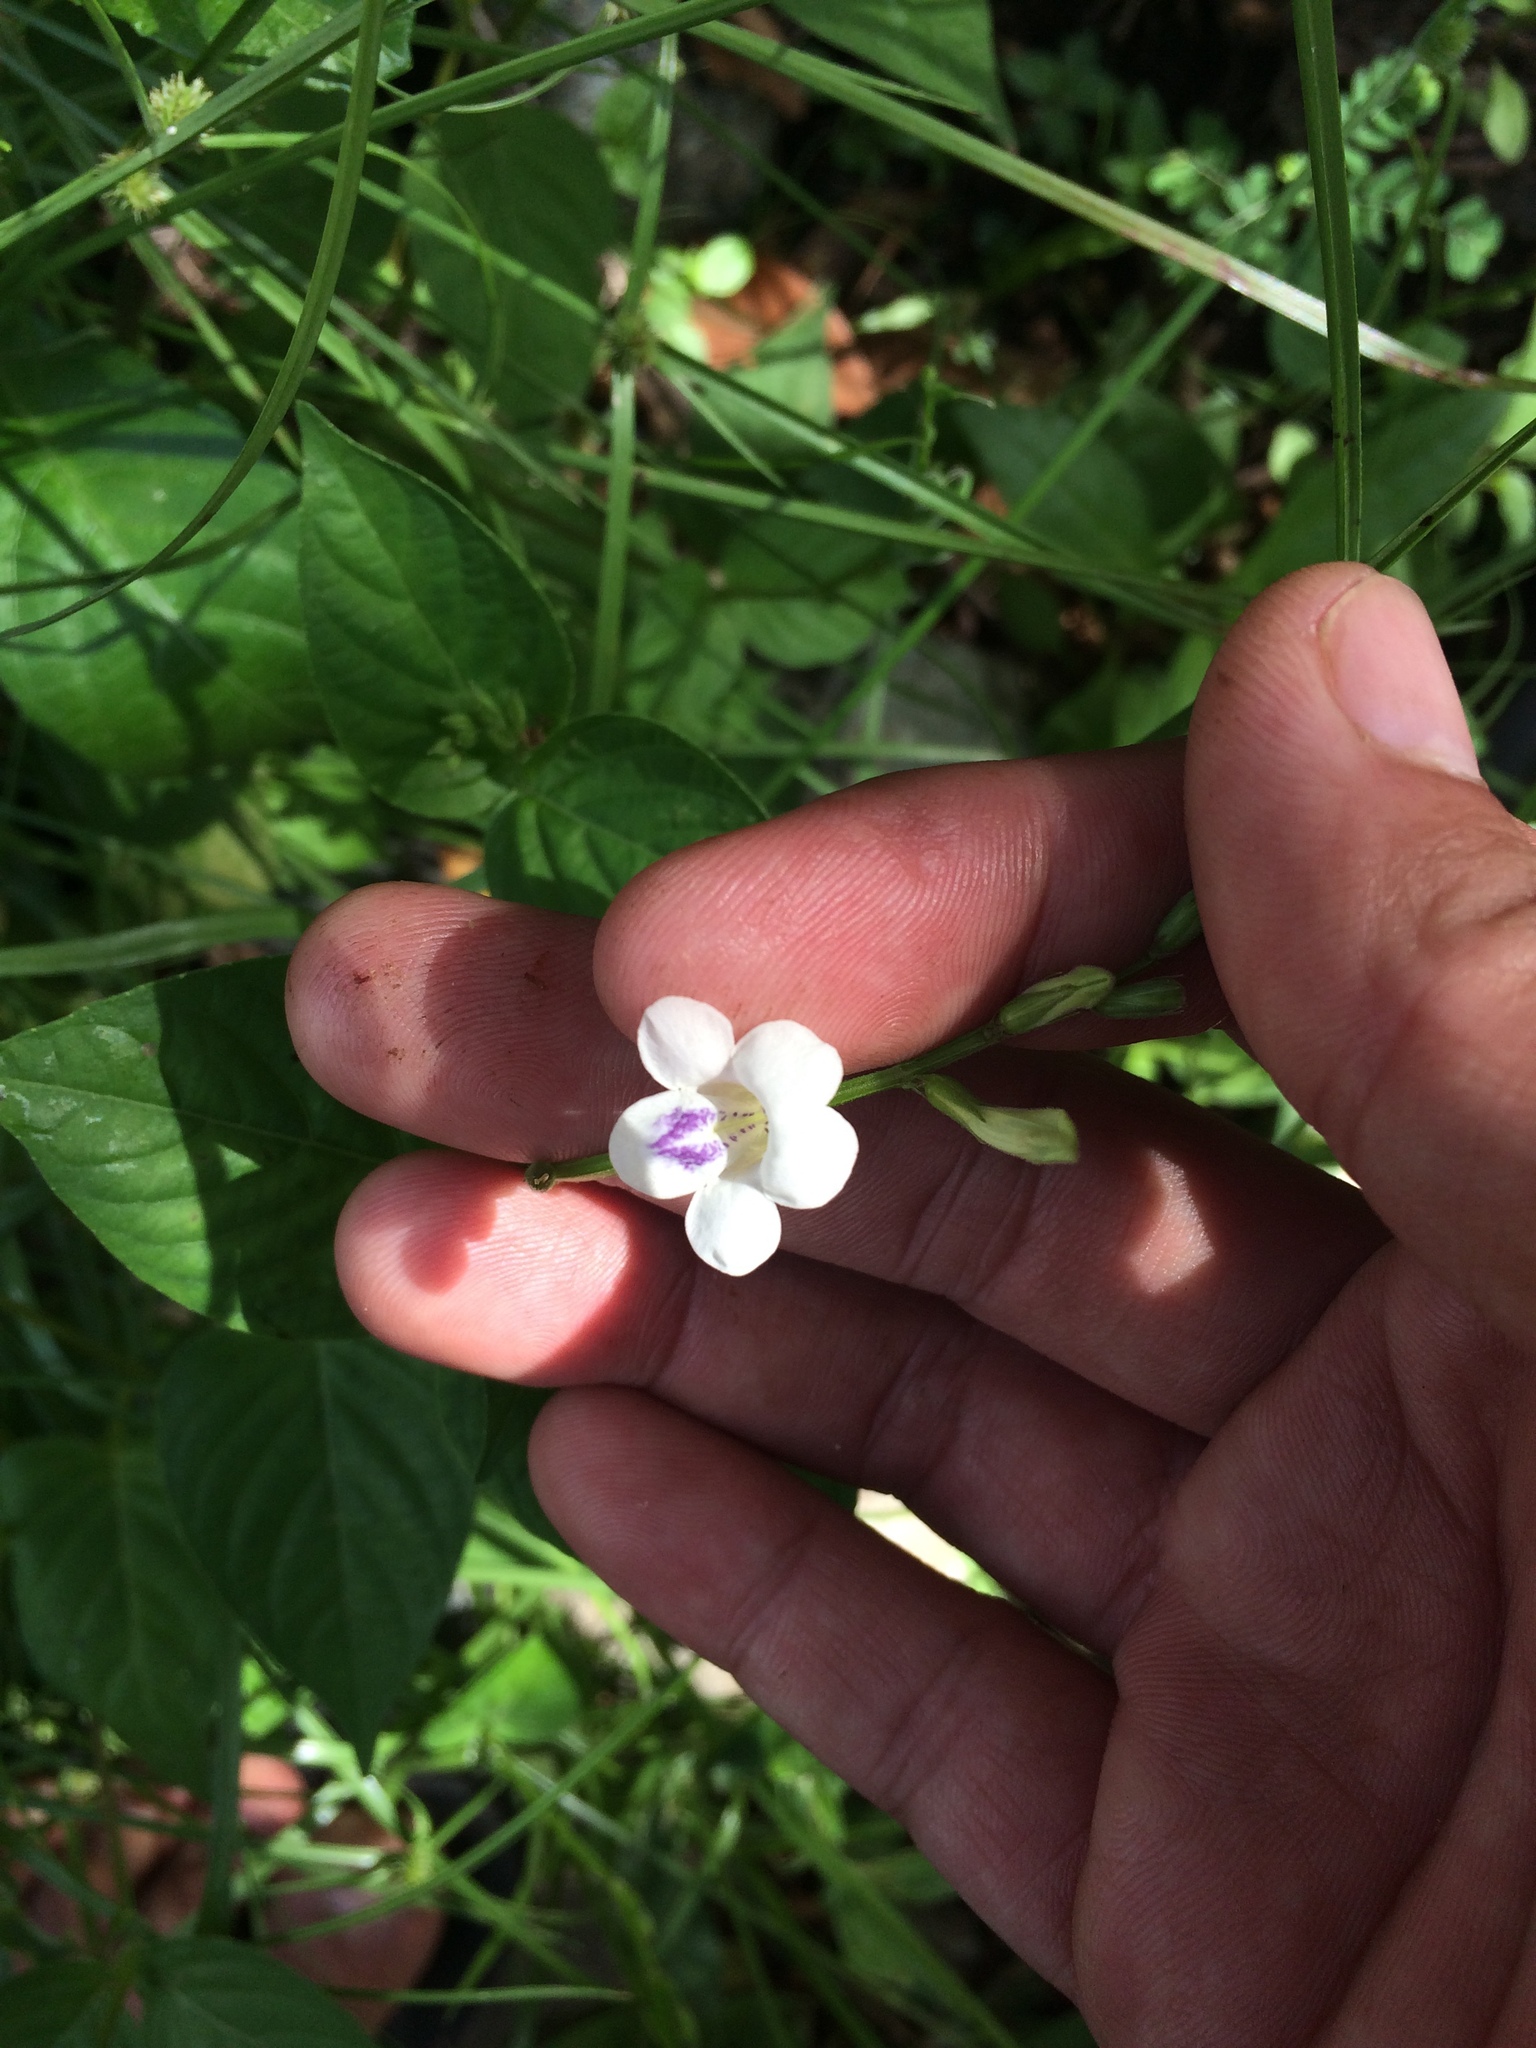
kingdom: Plantae
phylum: Tracheophyta
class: Magnoliopsida
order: Lamiales
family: Acanthaceae
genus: Asystasia
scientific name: Asystasia intrusa
